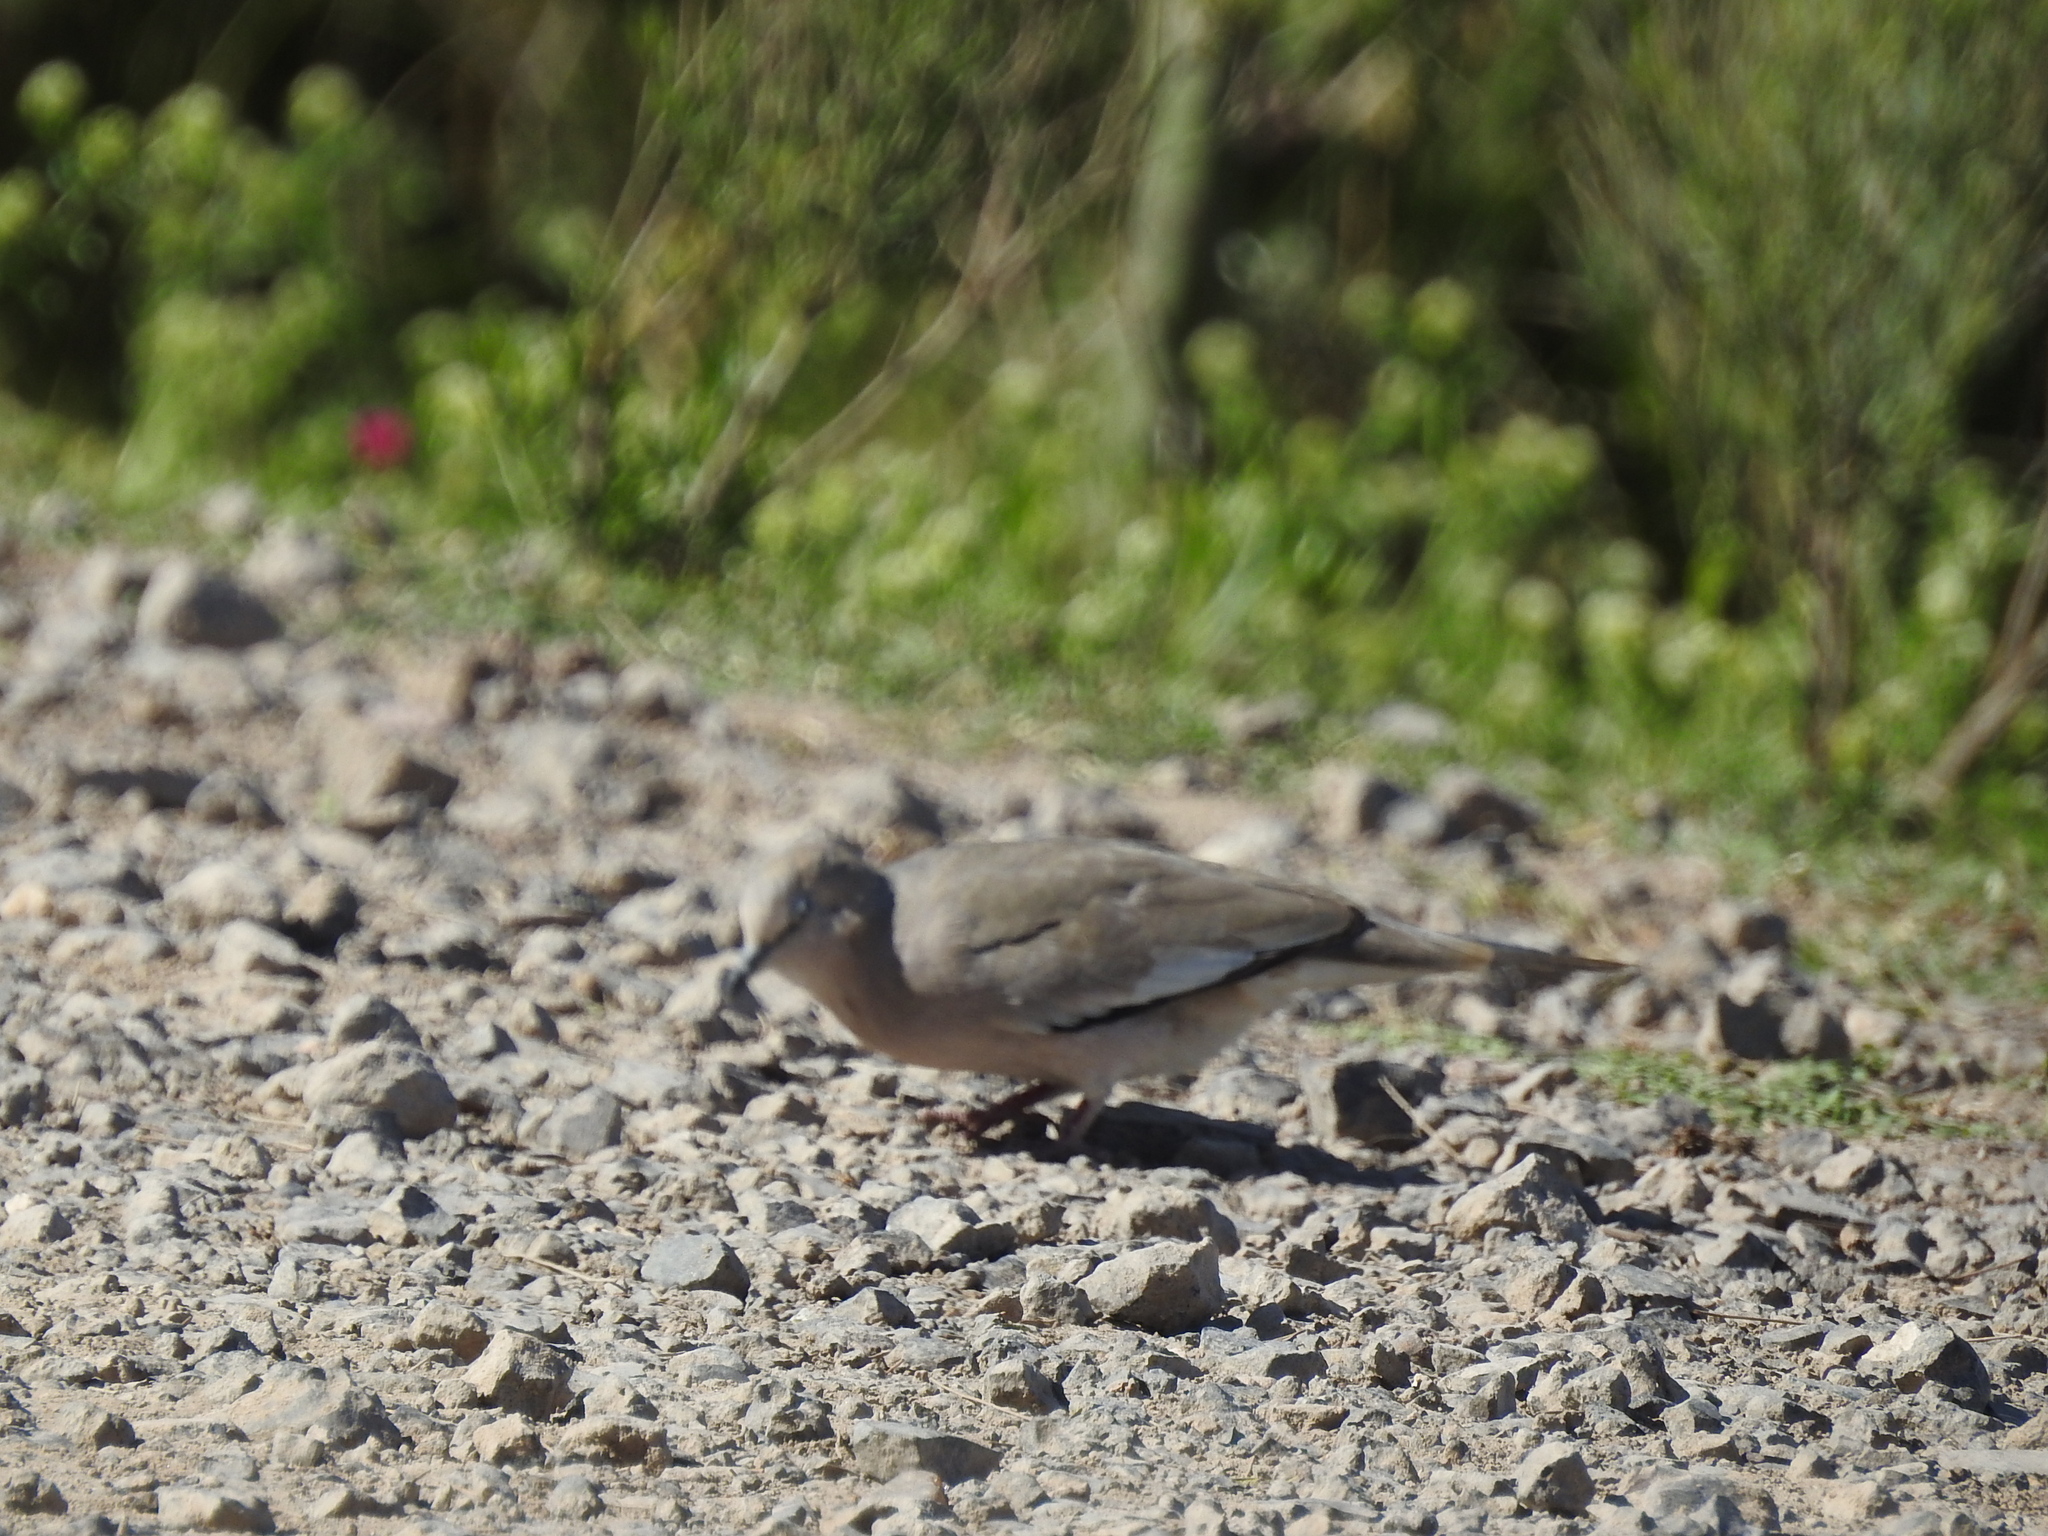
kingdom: Animalia
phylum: Chordata
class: Aves
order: Columbiformes
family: Columbidae
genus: Columbina
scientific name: Columbina picui
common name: Picui ground dove
